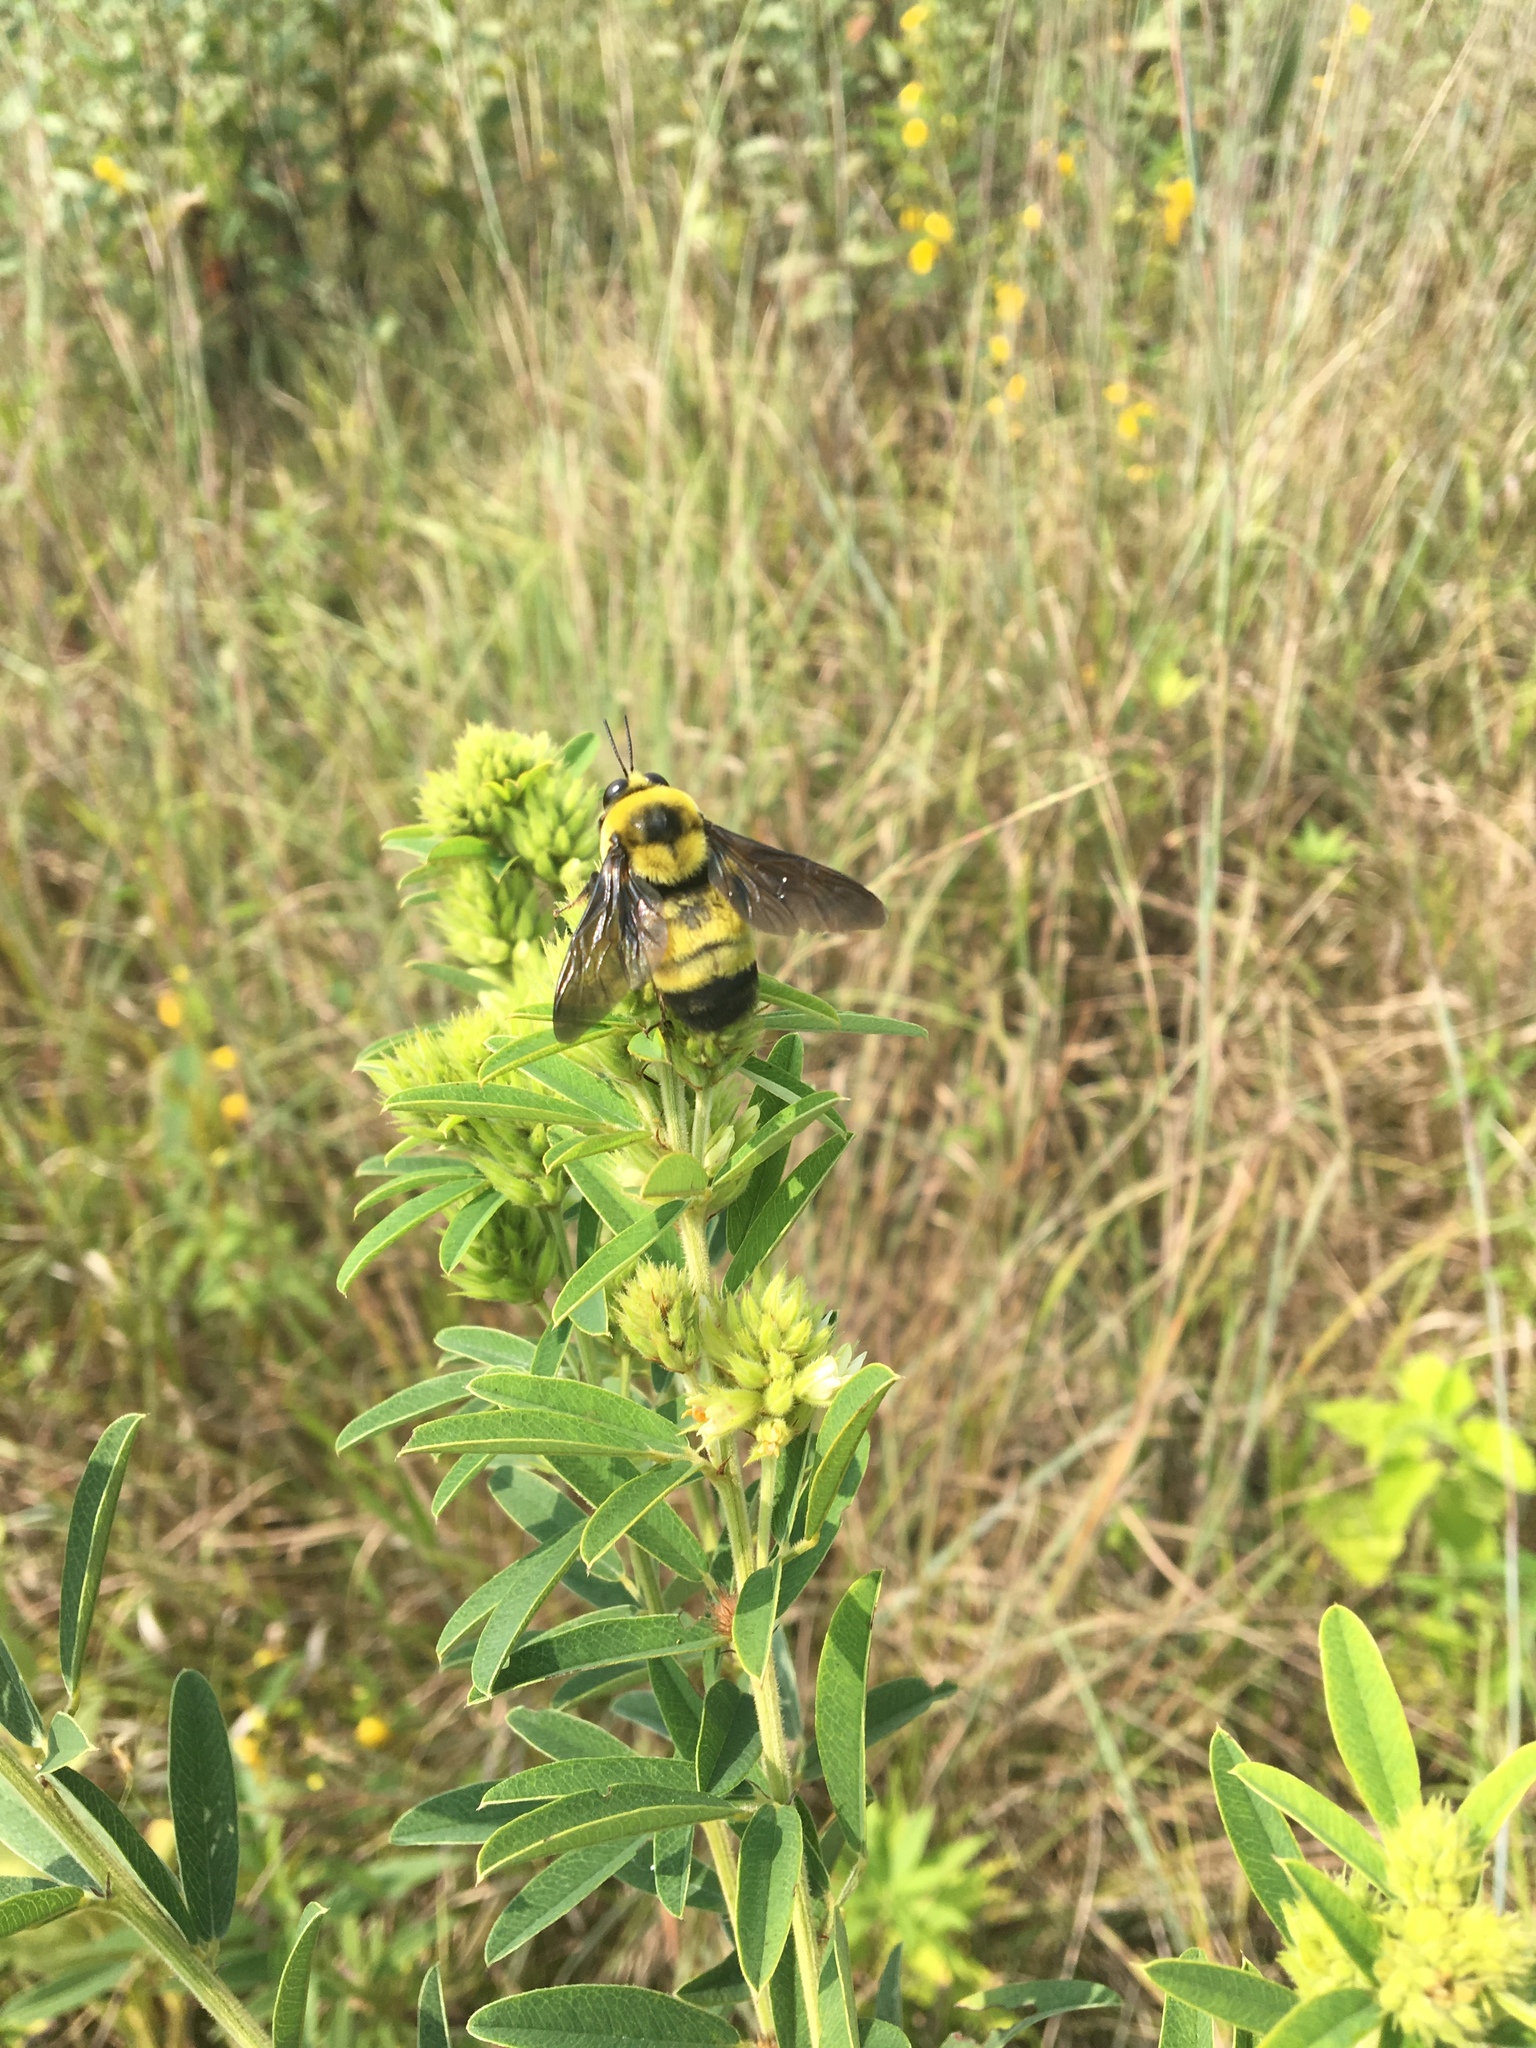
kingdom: Animalia
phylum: Arthropoda
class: Insecta
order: Hymenoptera
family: Apidae
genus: Bombus
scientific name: Bombus auricomus
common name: Black and gold bumble bee
